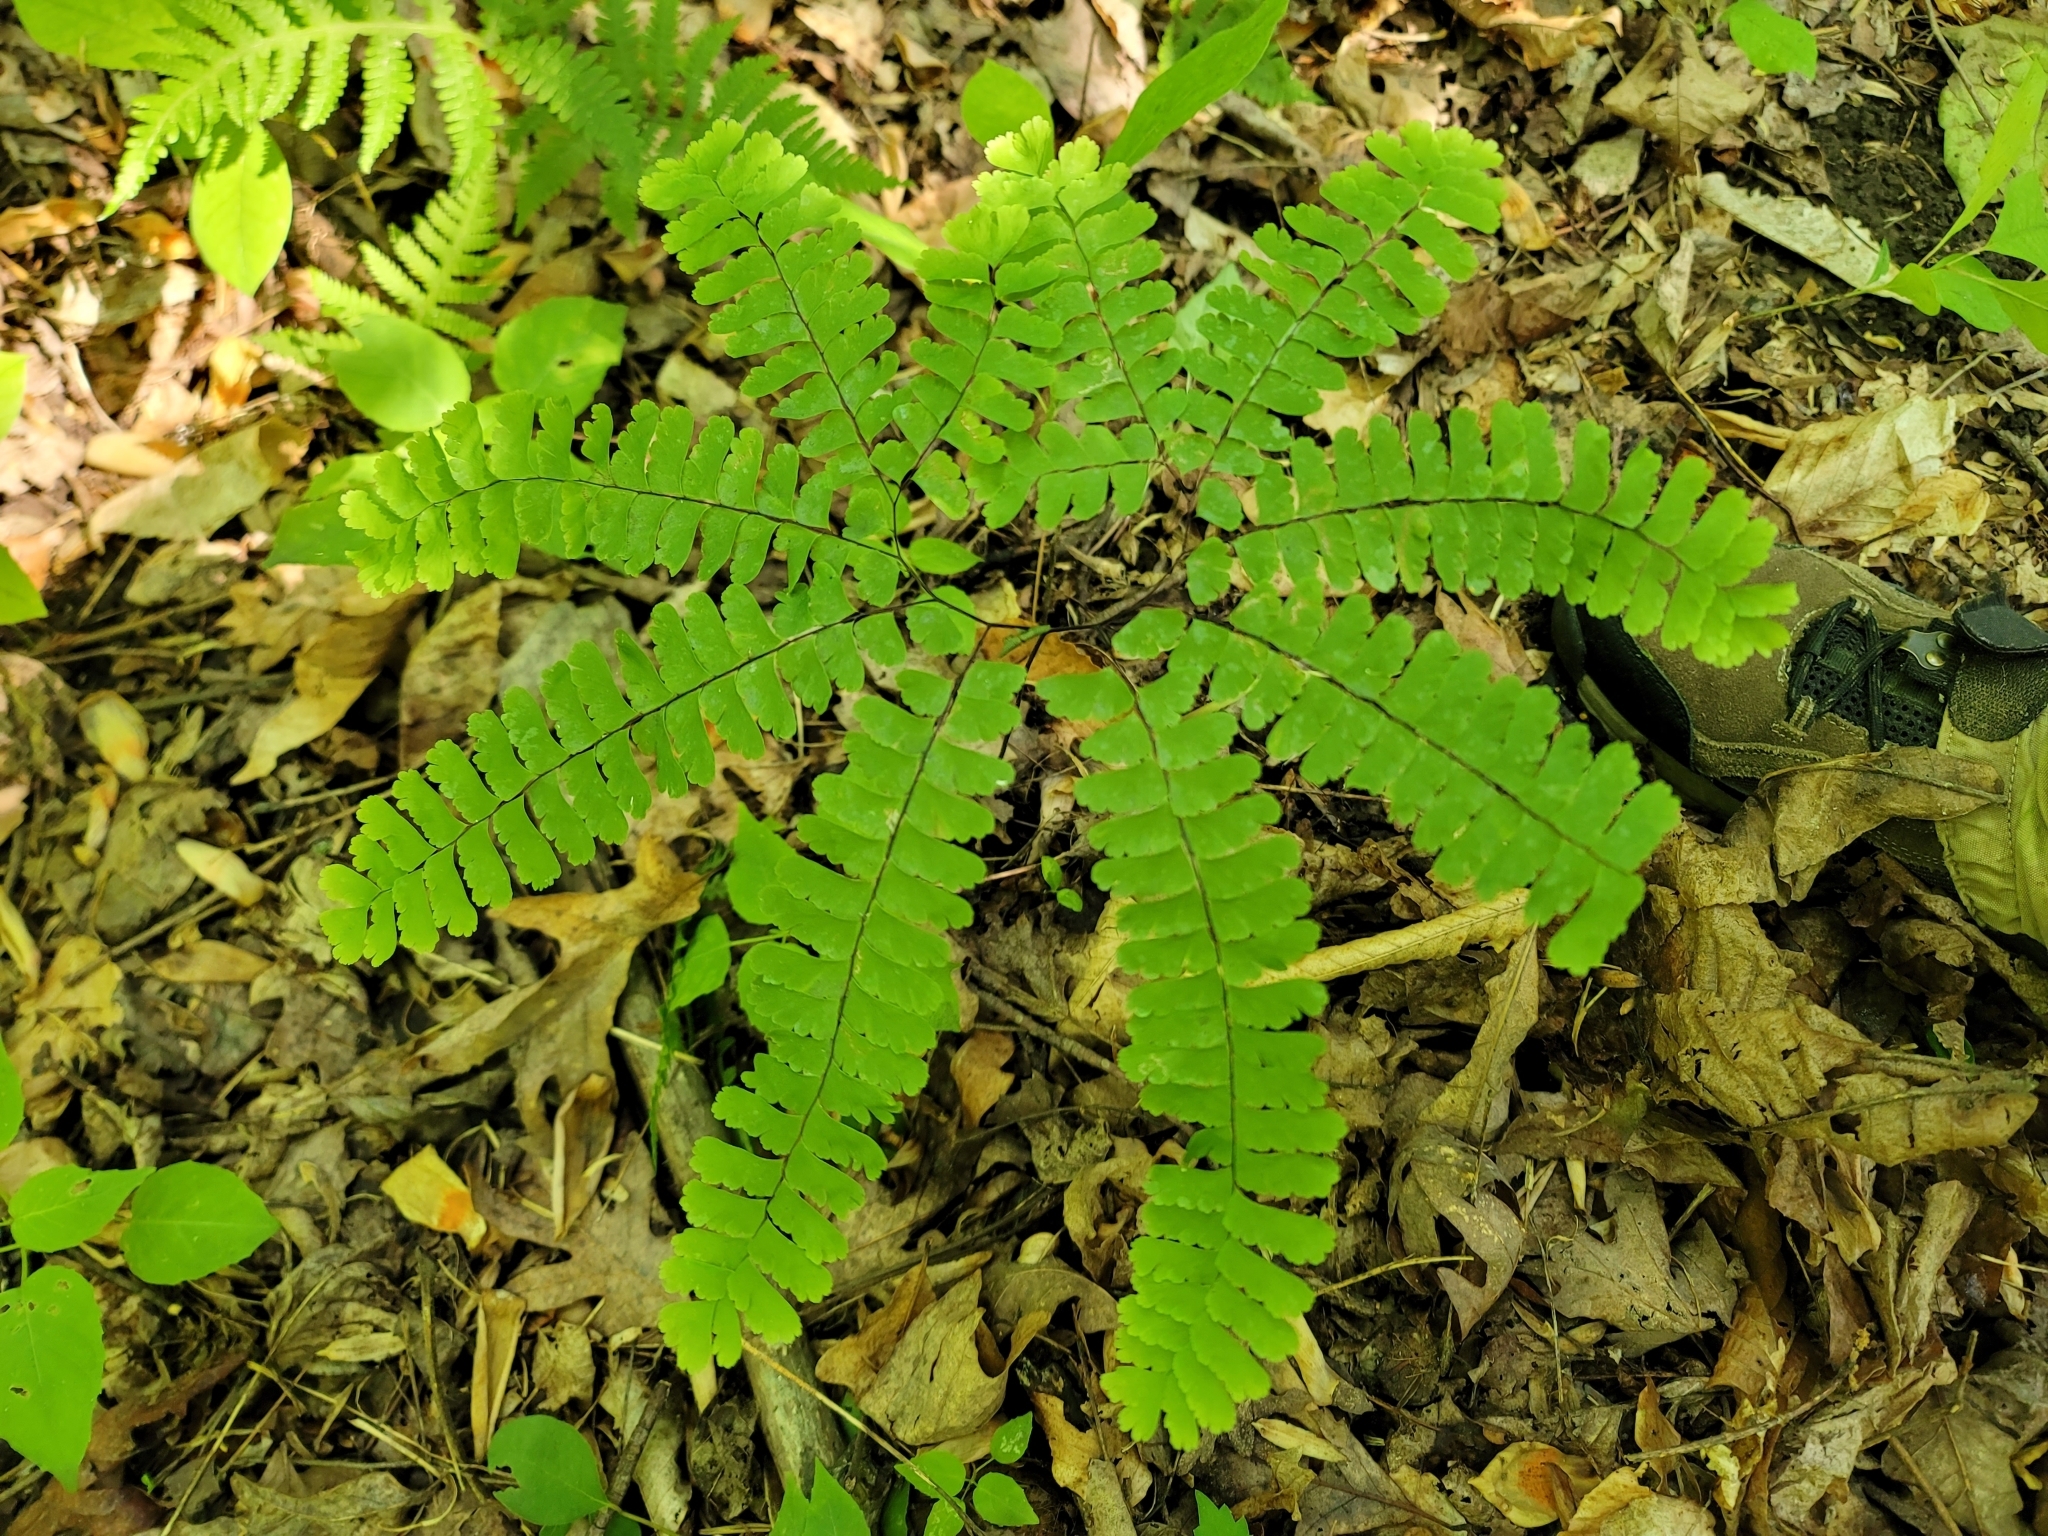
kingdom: Plantae
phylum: Tracheophyta
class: Polypodiopsida
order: Polypodiales
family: Pteridaceae
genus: Adiantum
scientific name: Adiantum pedatum
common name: Five-finger fern
